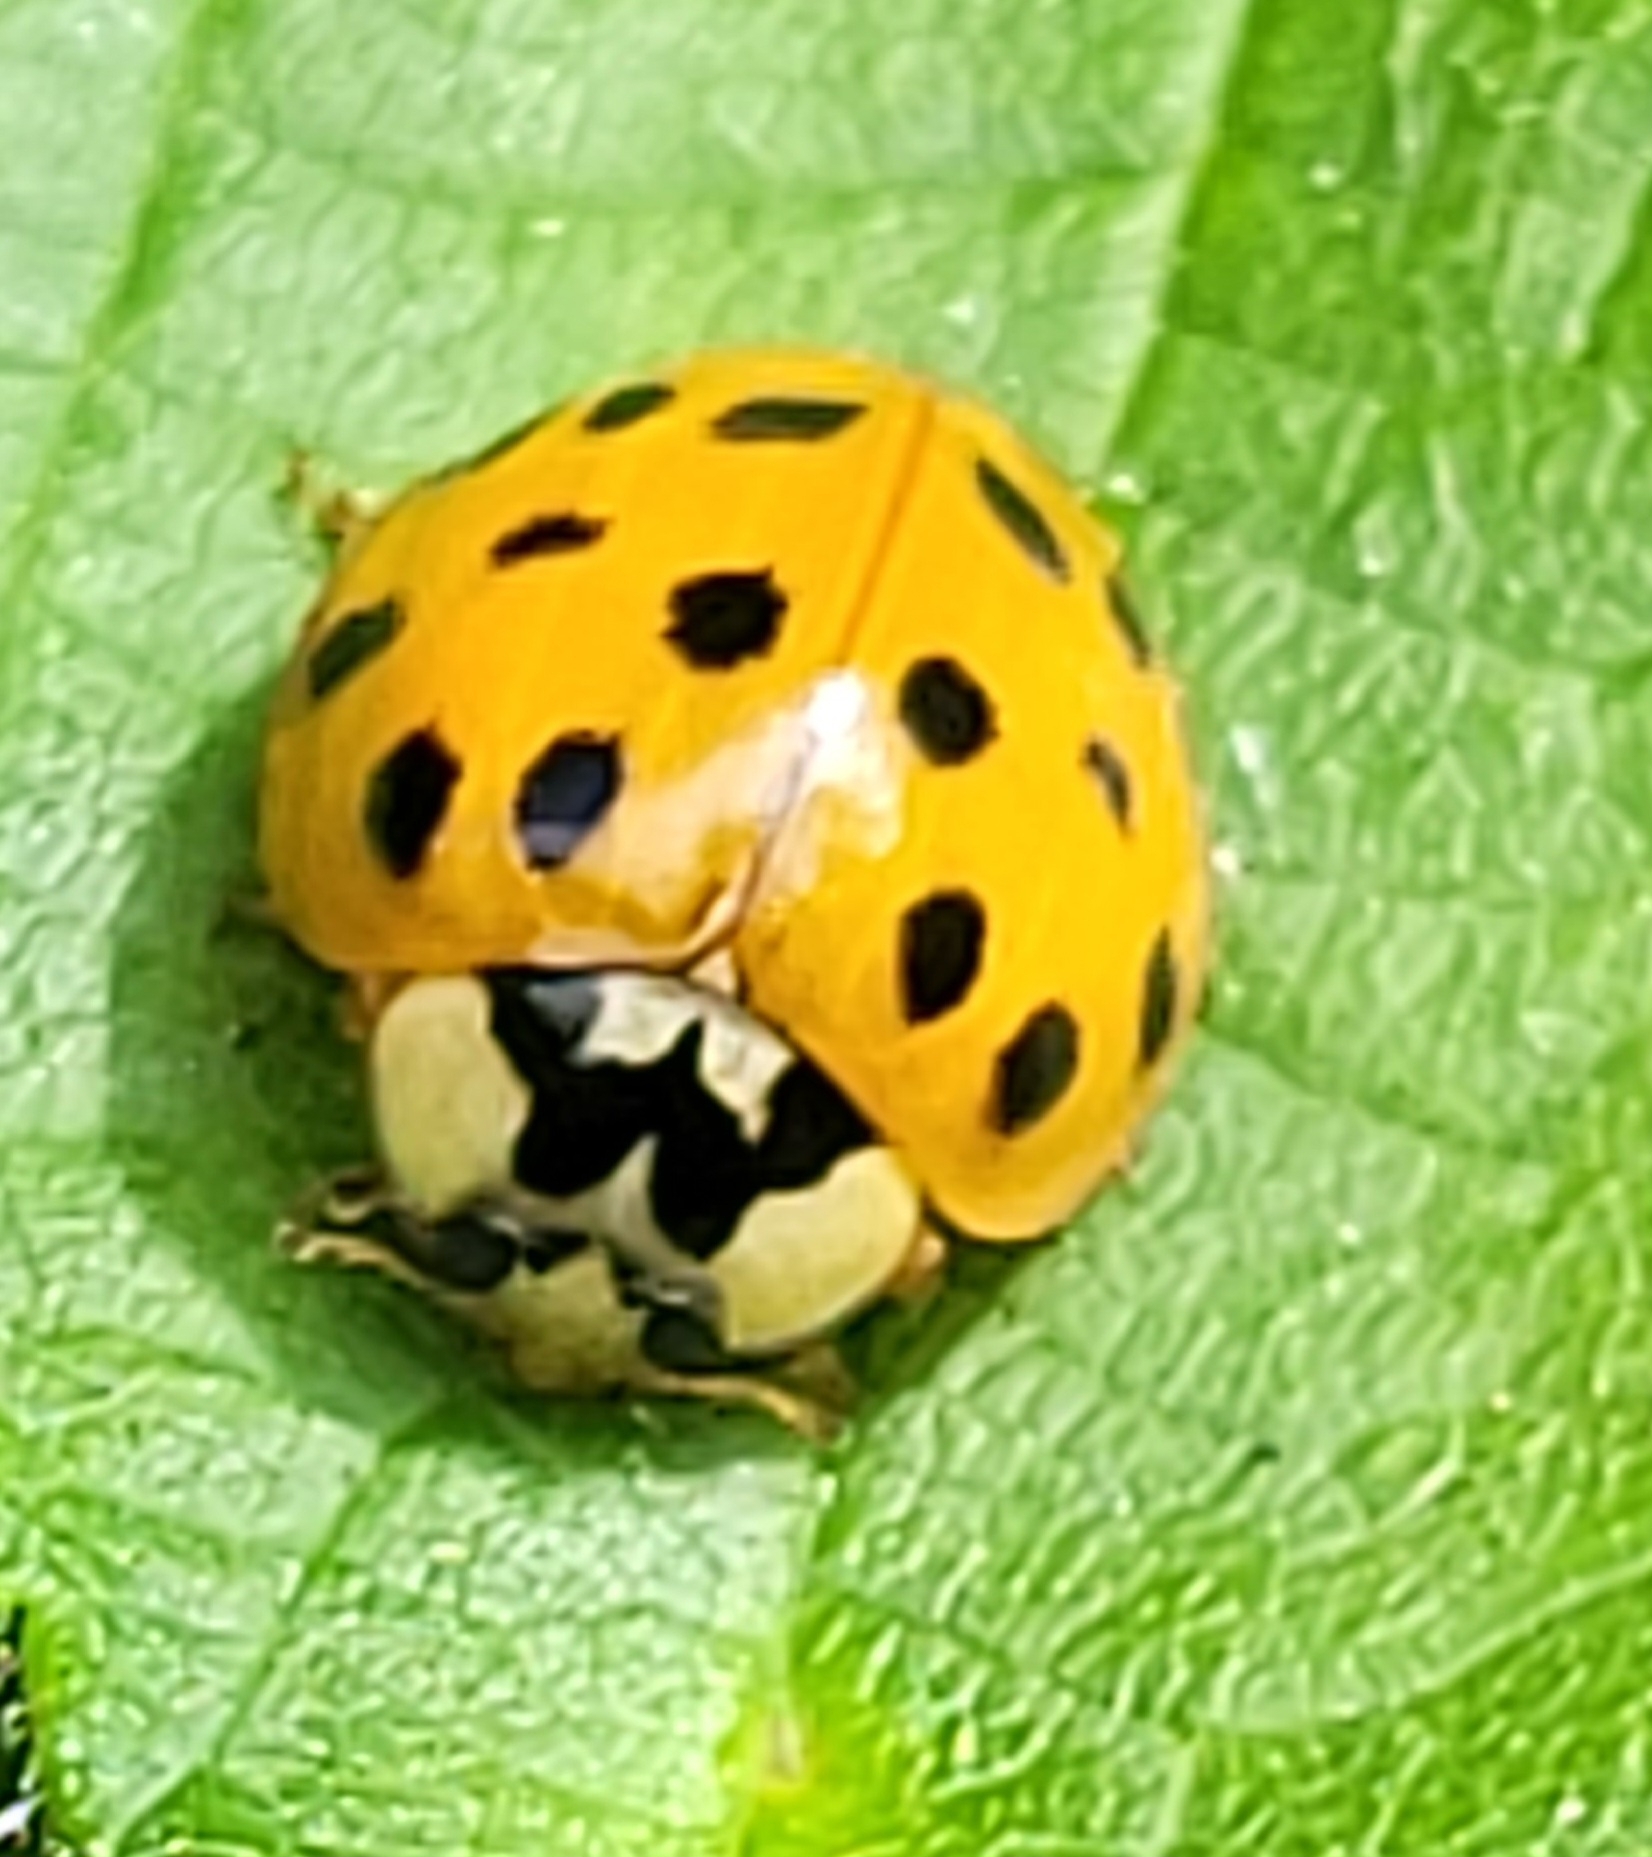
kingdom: Animalia
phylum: Arthropoda
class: Insecta
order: Coleoptera
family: Coccinellidae
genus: Harmonia
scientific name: Harmonia axyridis
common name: Harlequin ladybird
